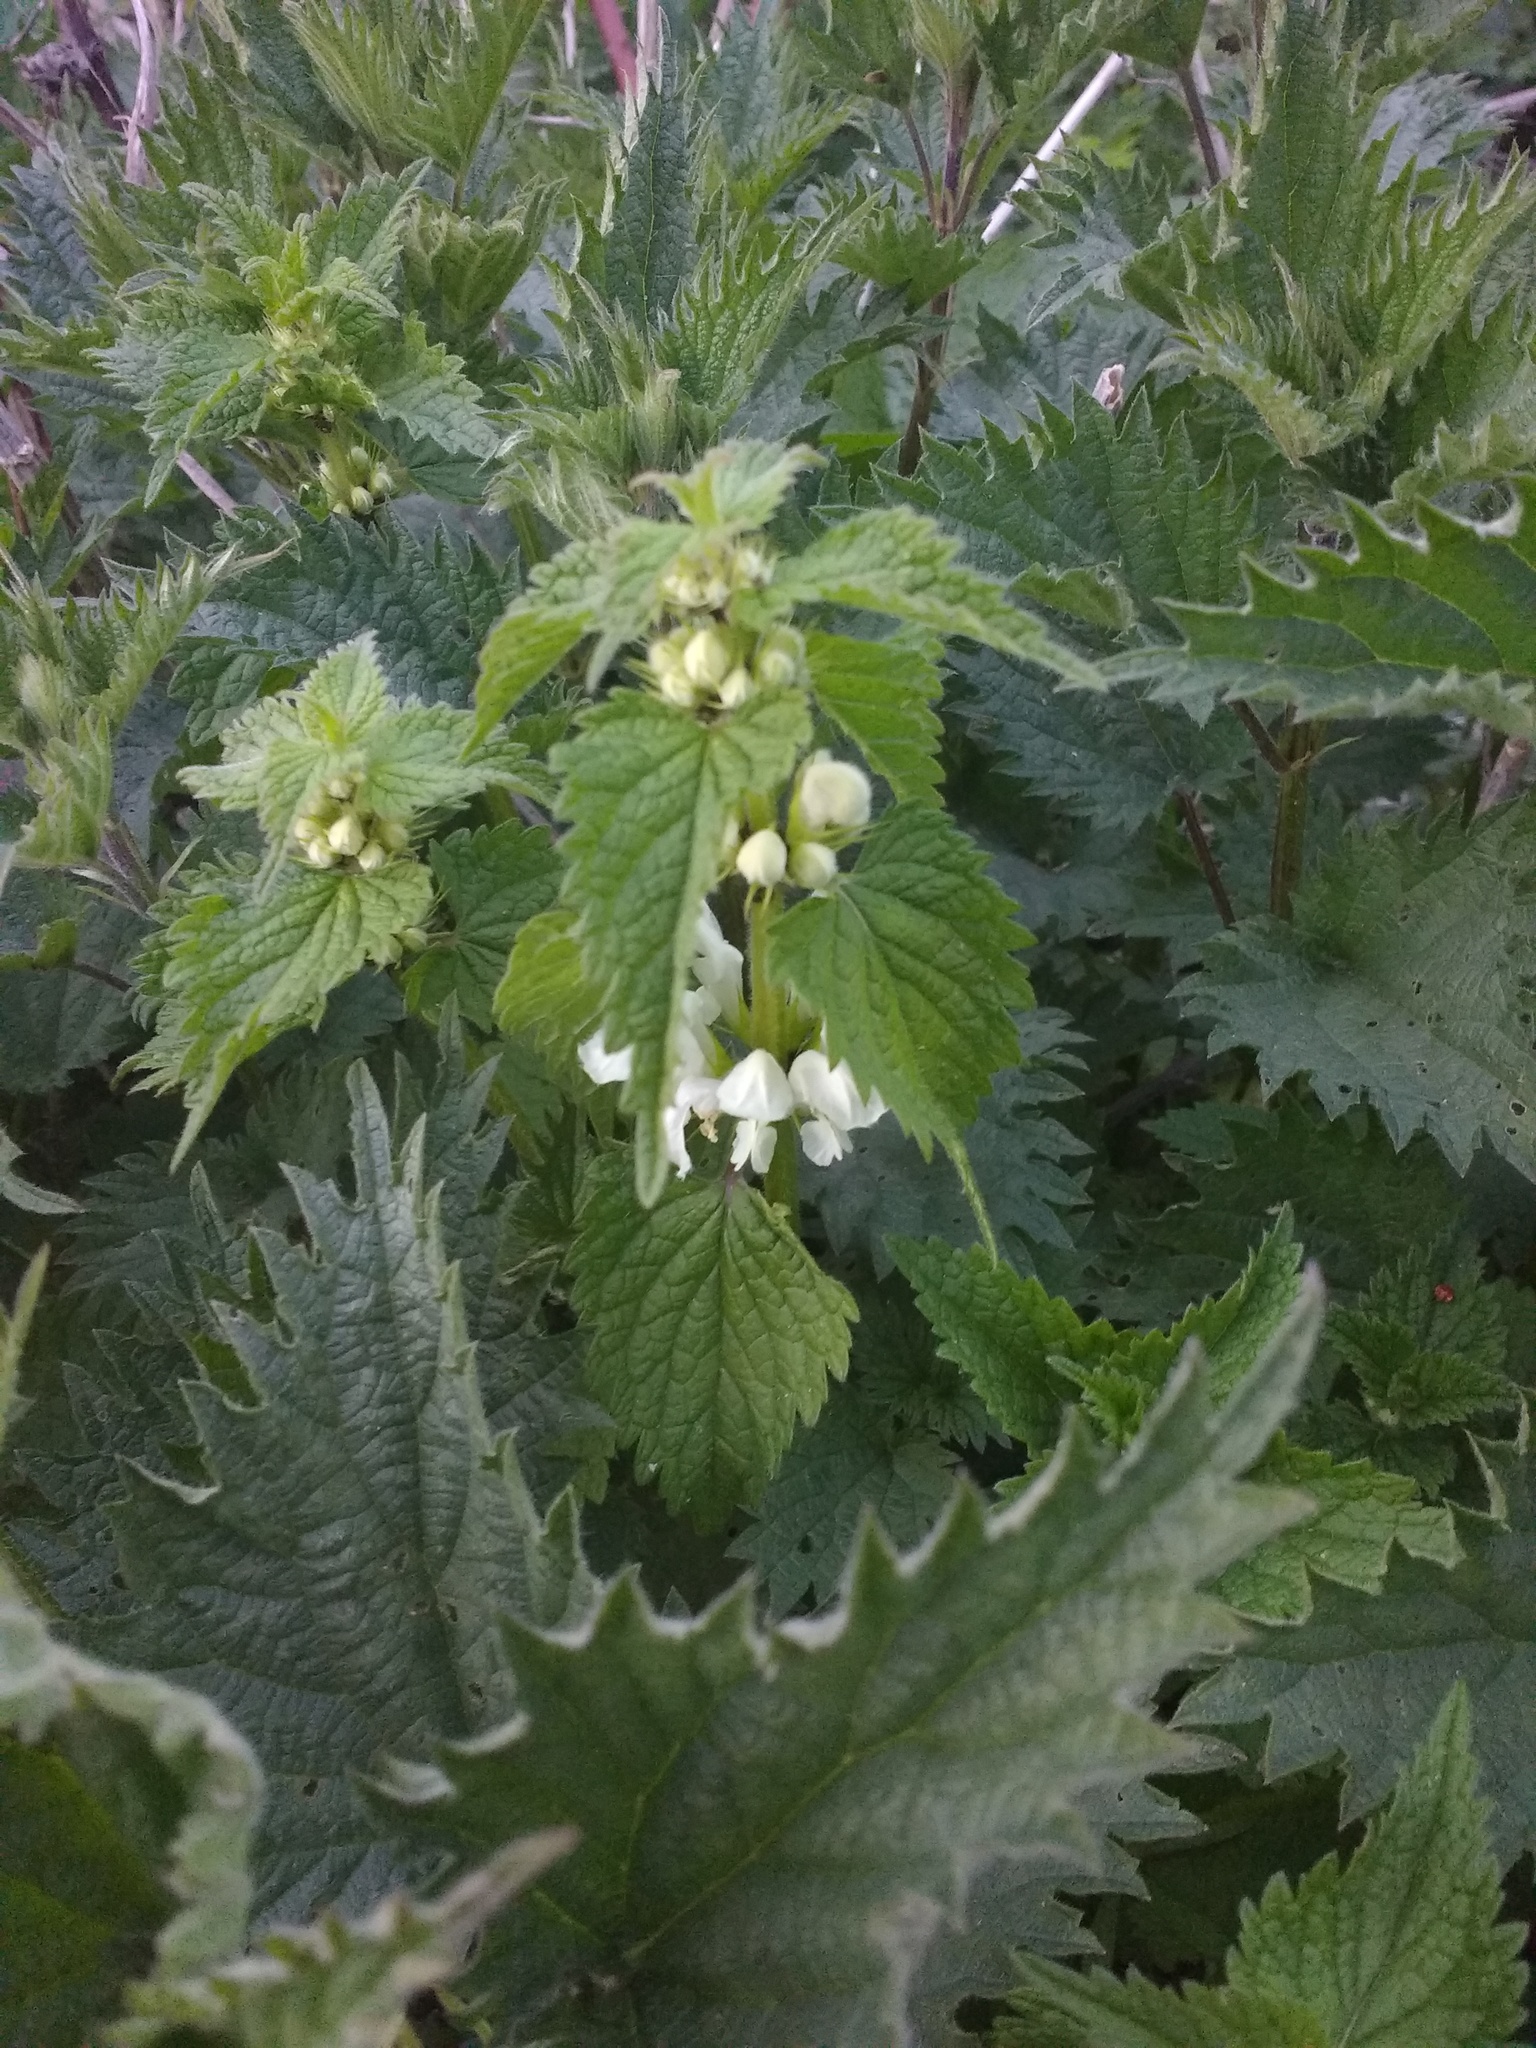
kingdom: Plantae
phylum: Tracheophyta
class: Magnoliopsida
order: Lamiales
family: Lamiaceae
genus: Lamium
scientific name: Lamium album
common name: White dead-nettle
